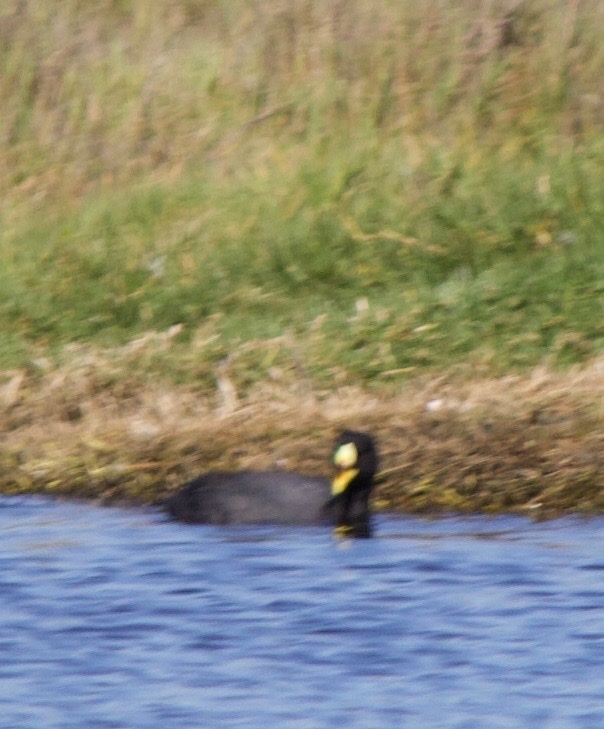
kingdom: Animalia
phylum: Chordata
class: Aves
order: Gruiformes
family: Rallidae
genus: Fulica
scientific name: Fulica armillata
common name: Red-gartered coot
